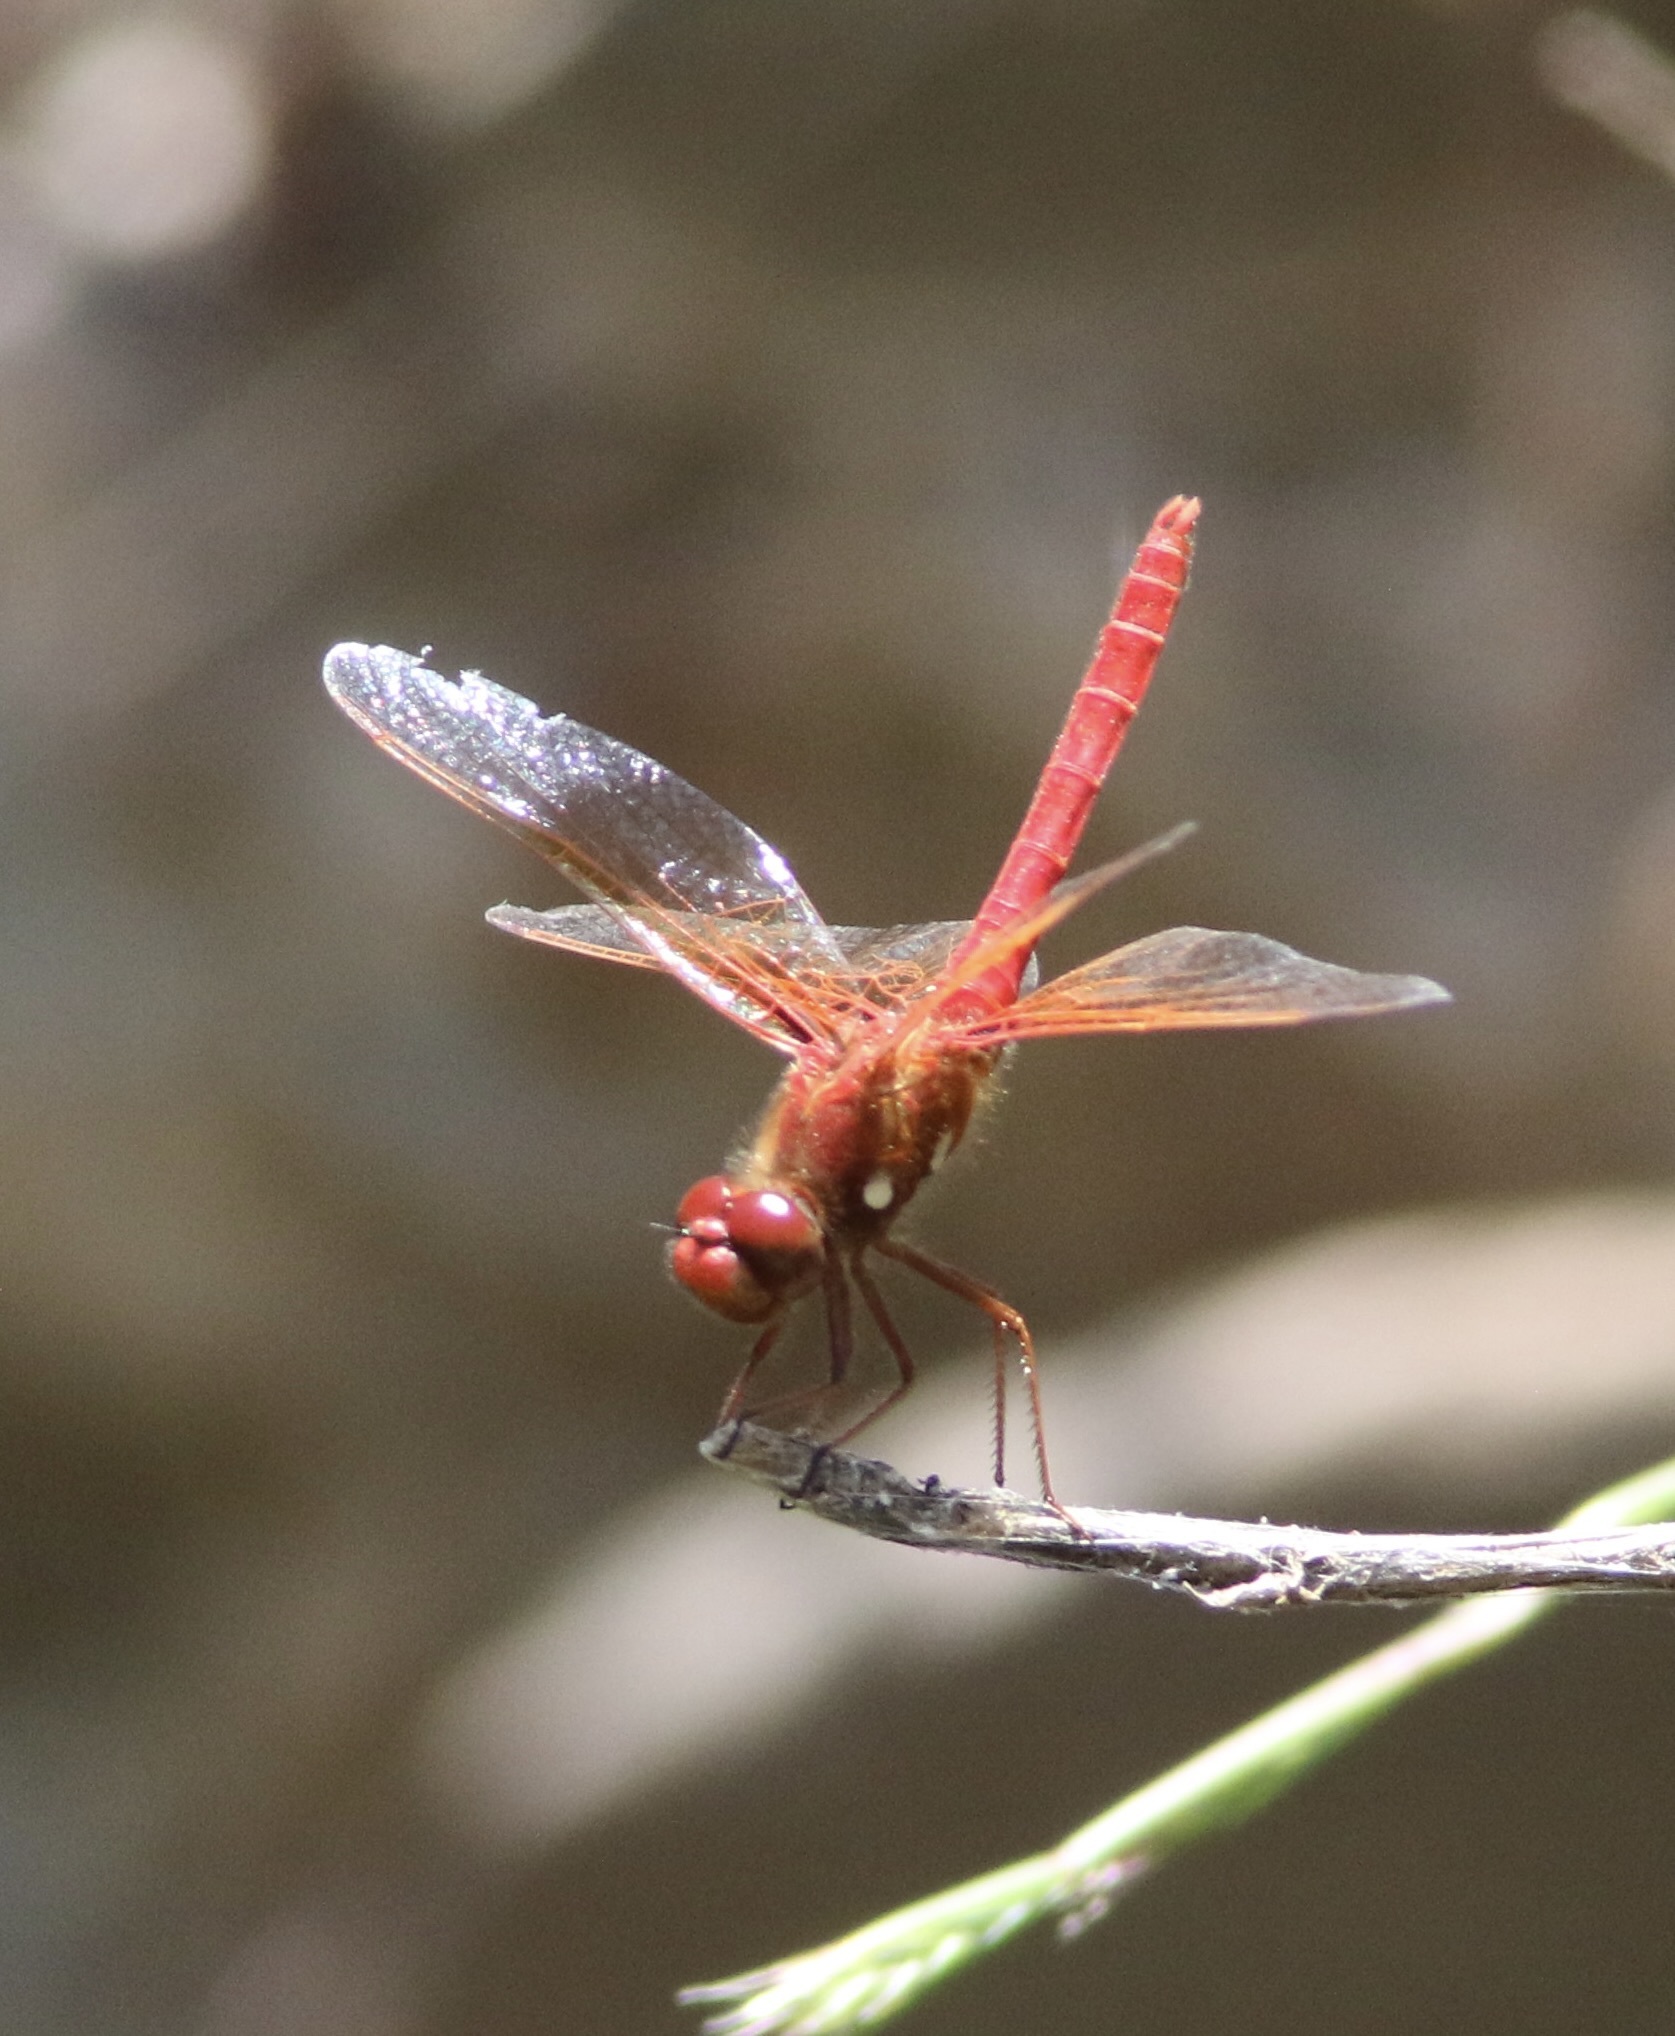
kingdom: Animalia
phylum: Arthropoda
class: Insecta
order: Odonata
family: Libellulidae
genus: Sympetrum
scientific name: Sympetrum illotum
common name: Cardinal meadowhawk
